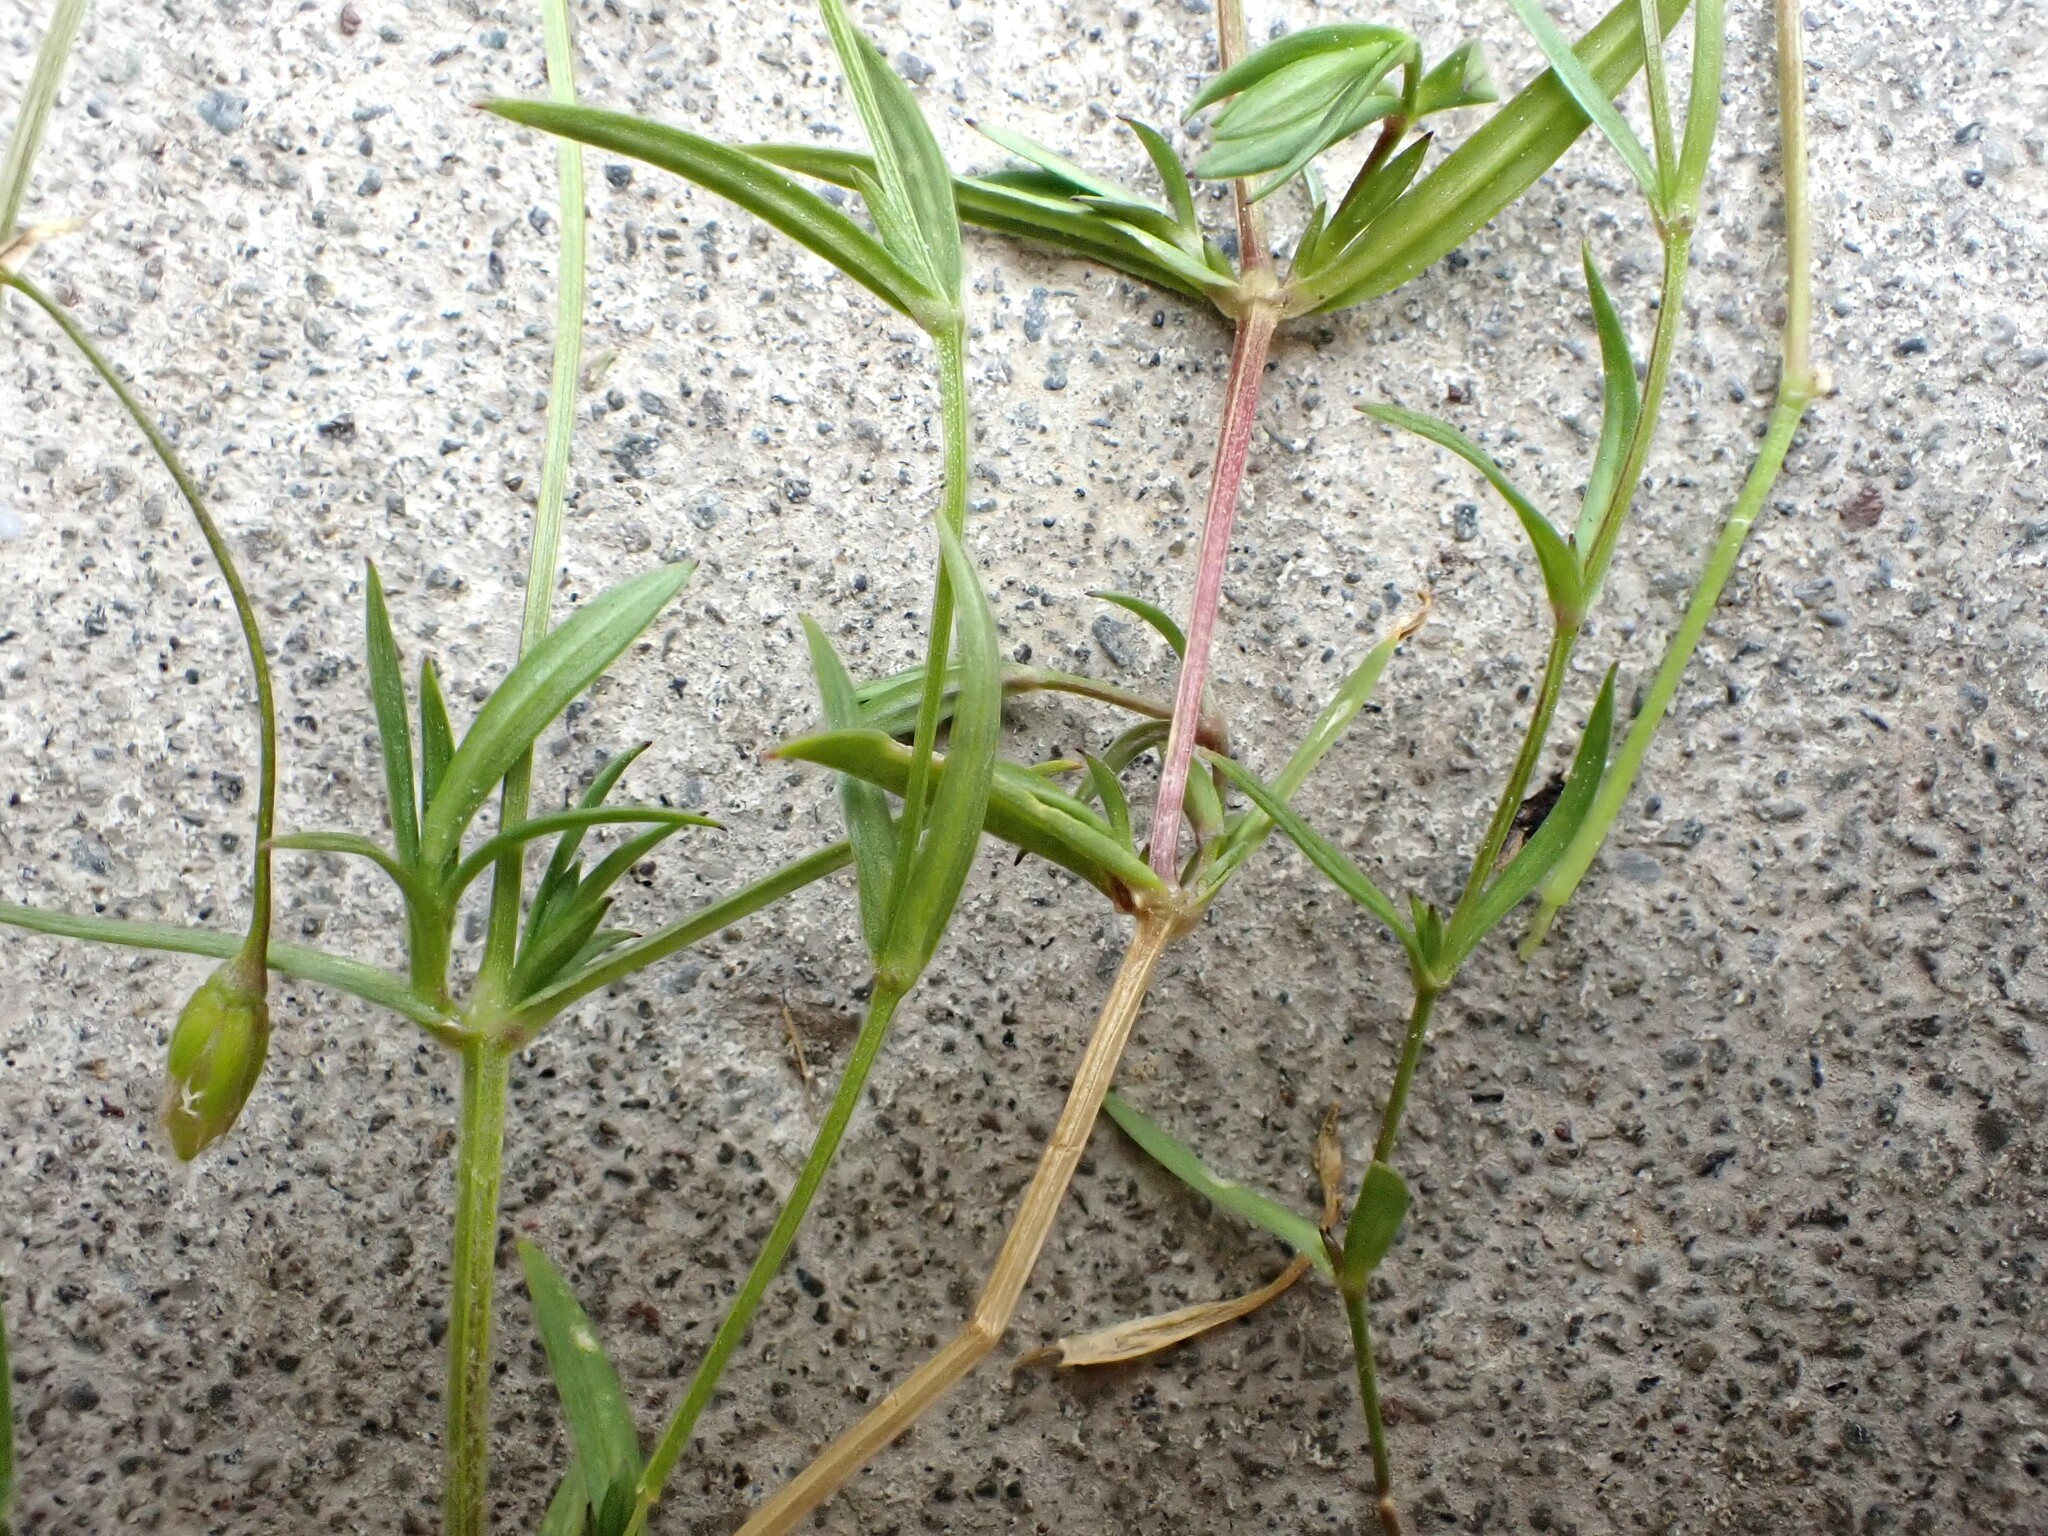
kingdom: Plantae
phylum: Tracheophyta
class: Magnoliopsida
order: Caryophyllales
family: Caryophyllaceae
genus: Stellaria
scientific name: Stellaria graminea
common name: Grass-like starwort
